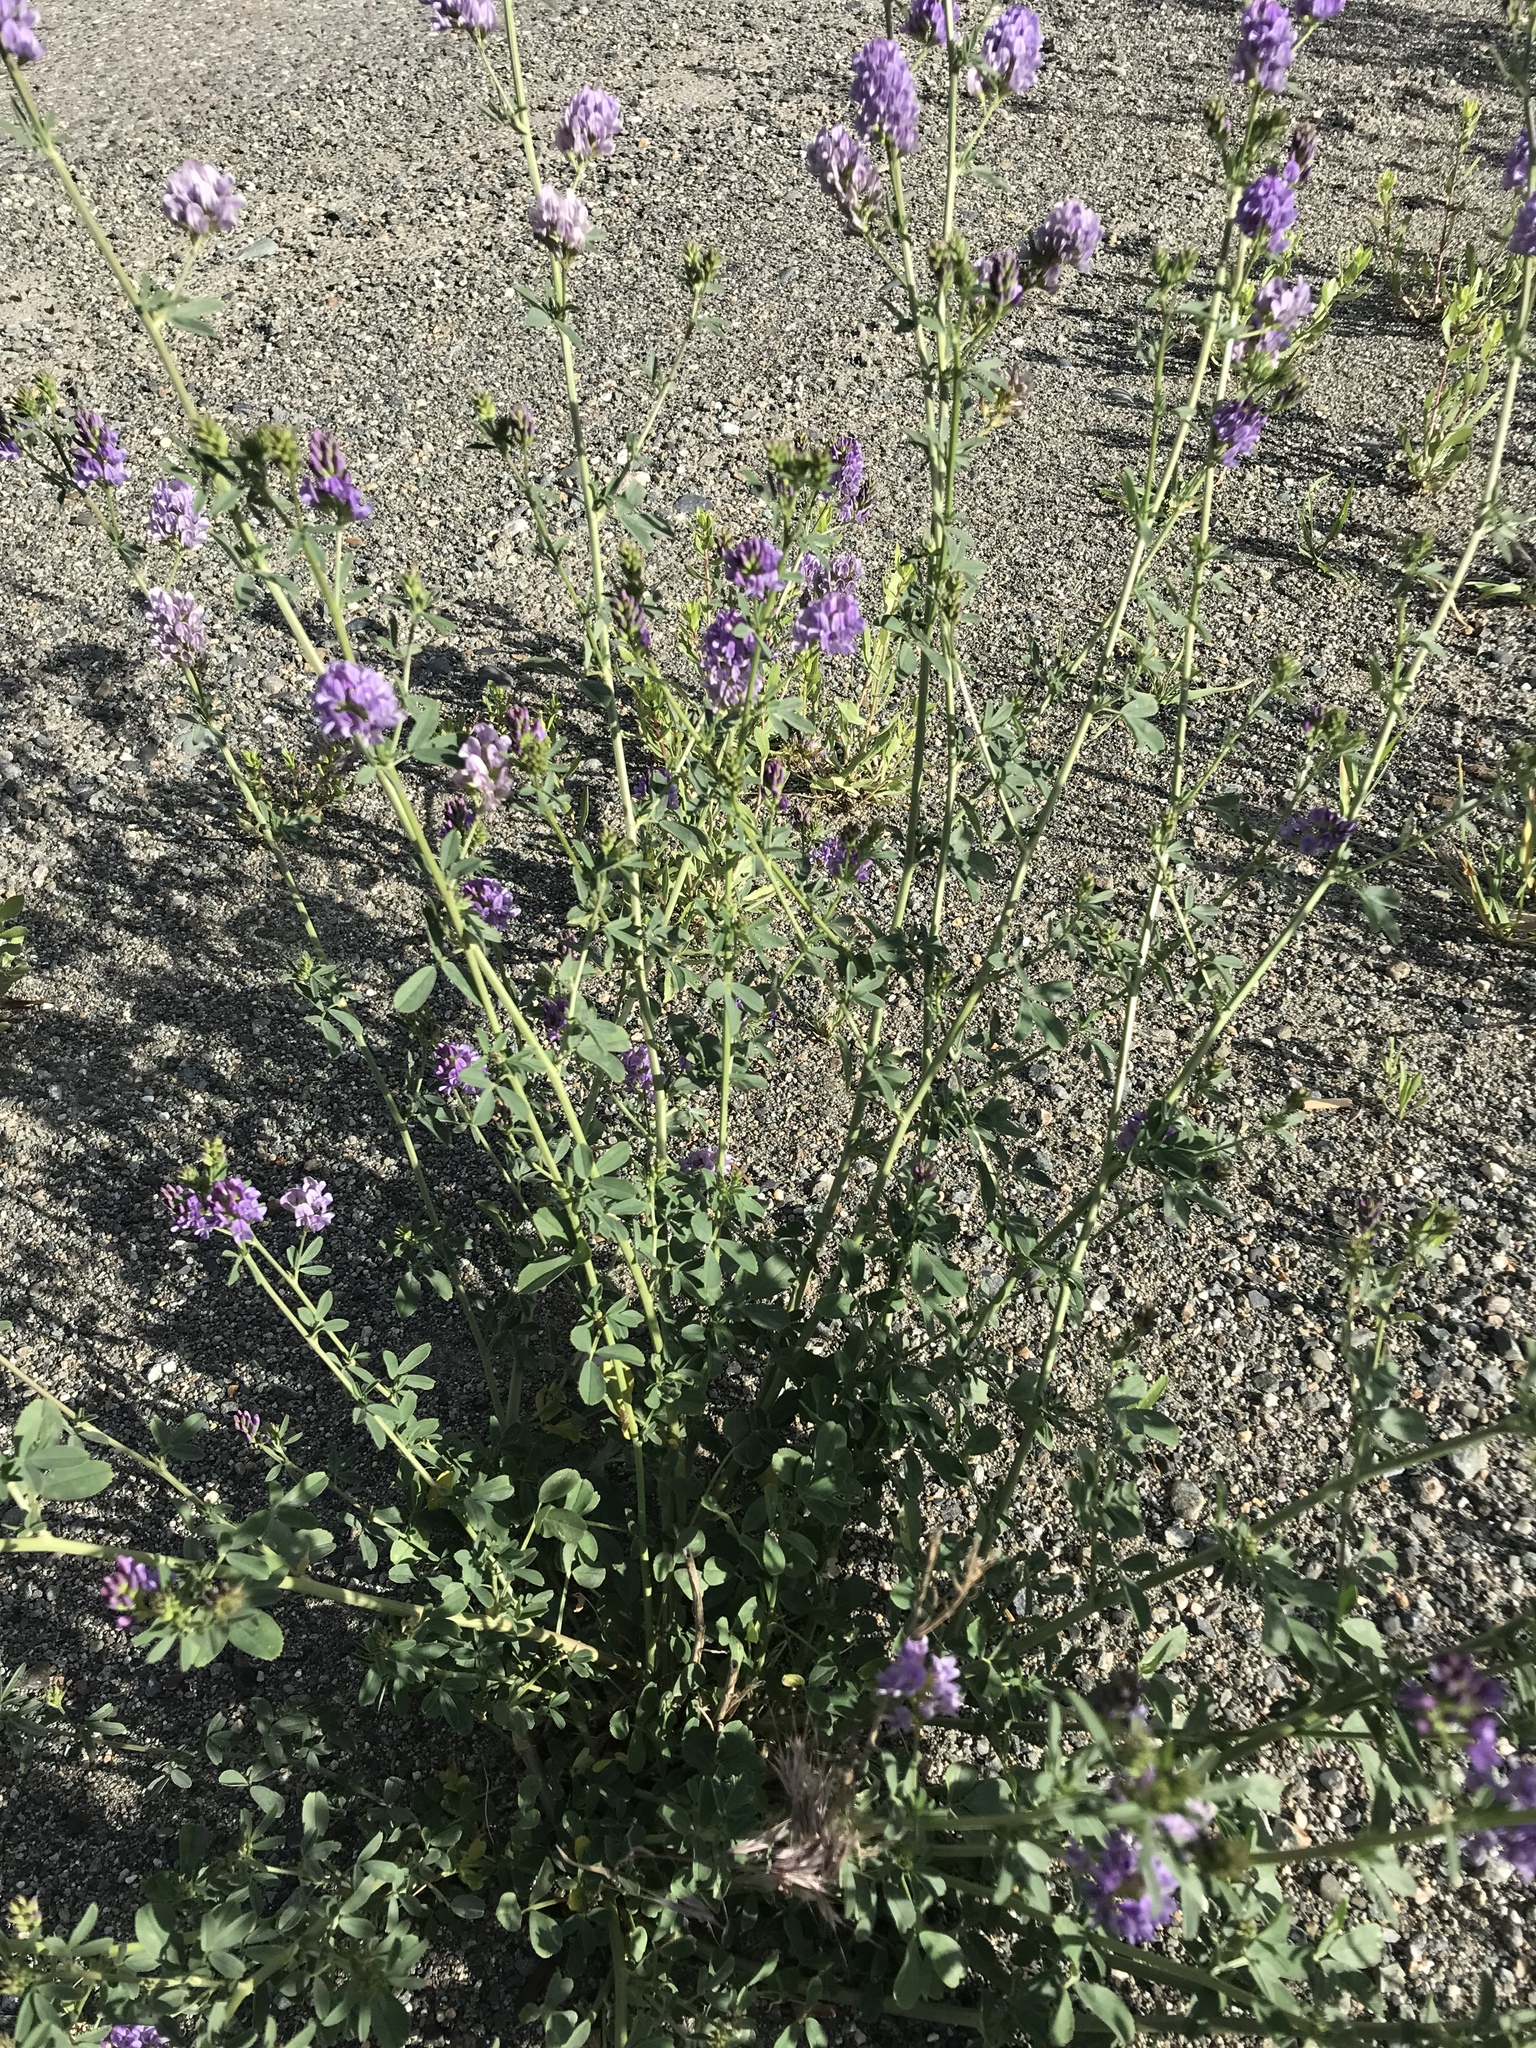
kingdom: Plantae
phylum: Tracheophyta
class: Magnoliopsida
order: Fabales
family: Fabaceae
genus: Medicago
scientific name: Medicago sativa
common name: Alfalfa
